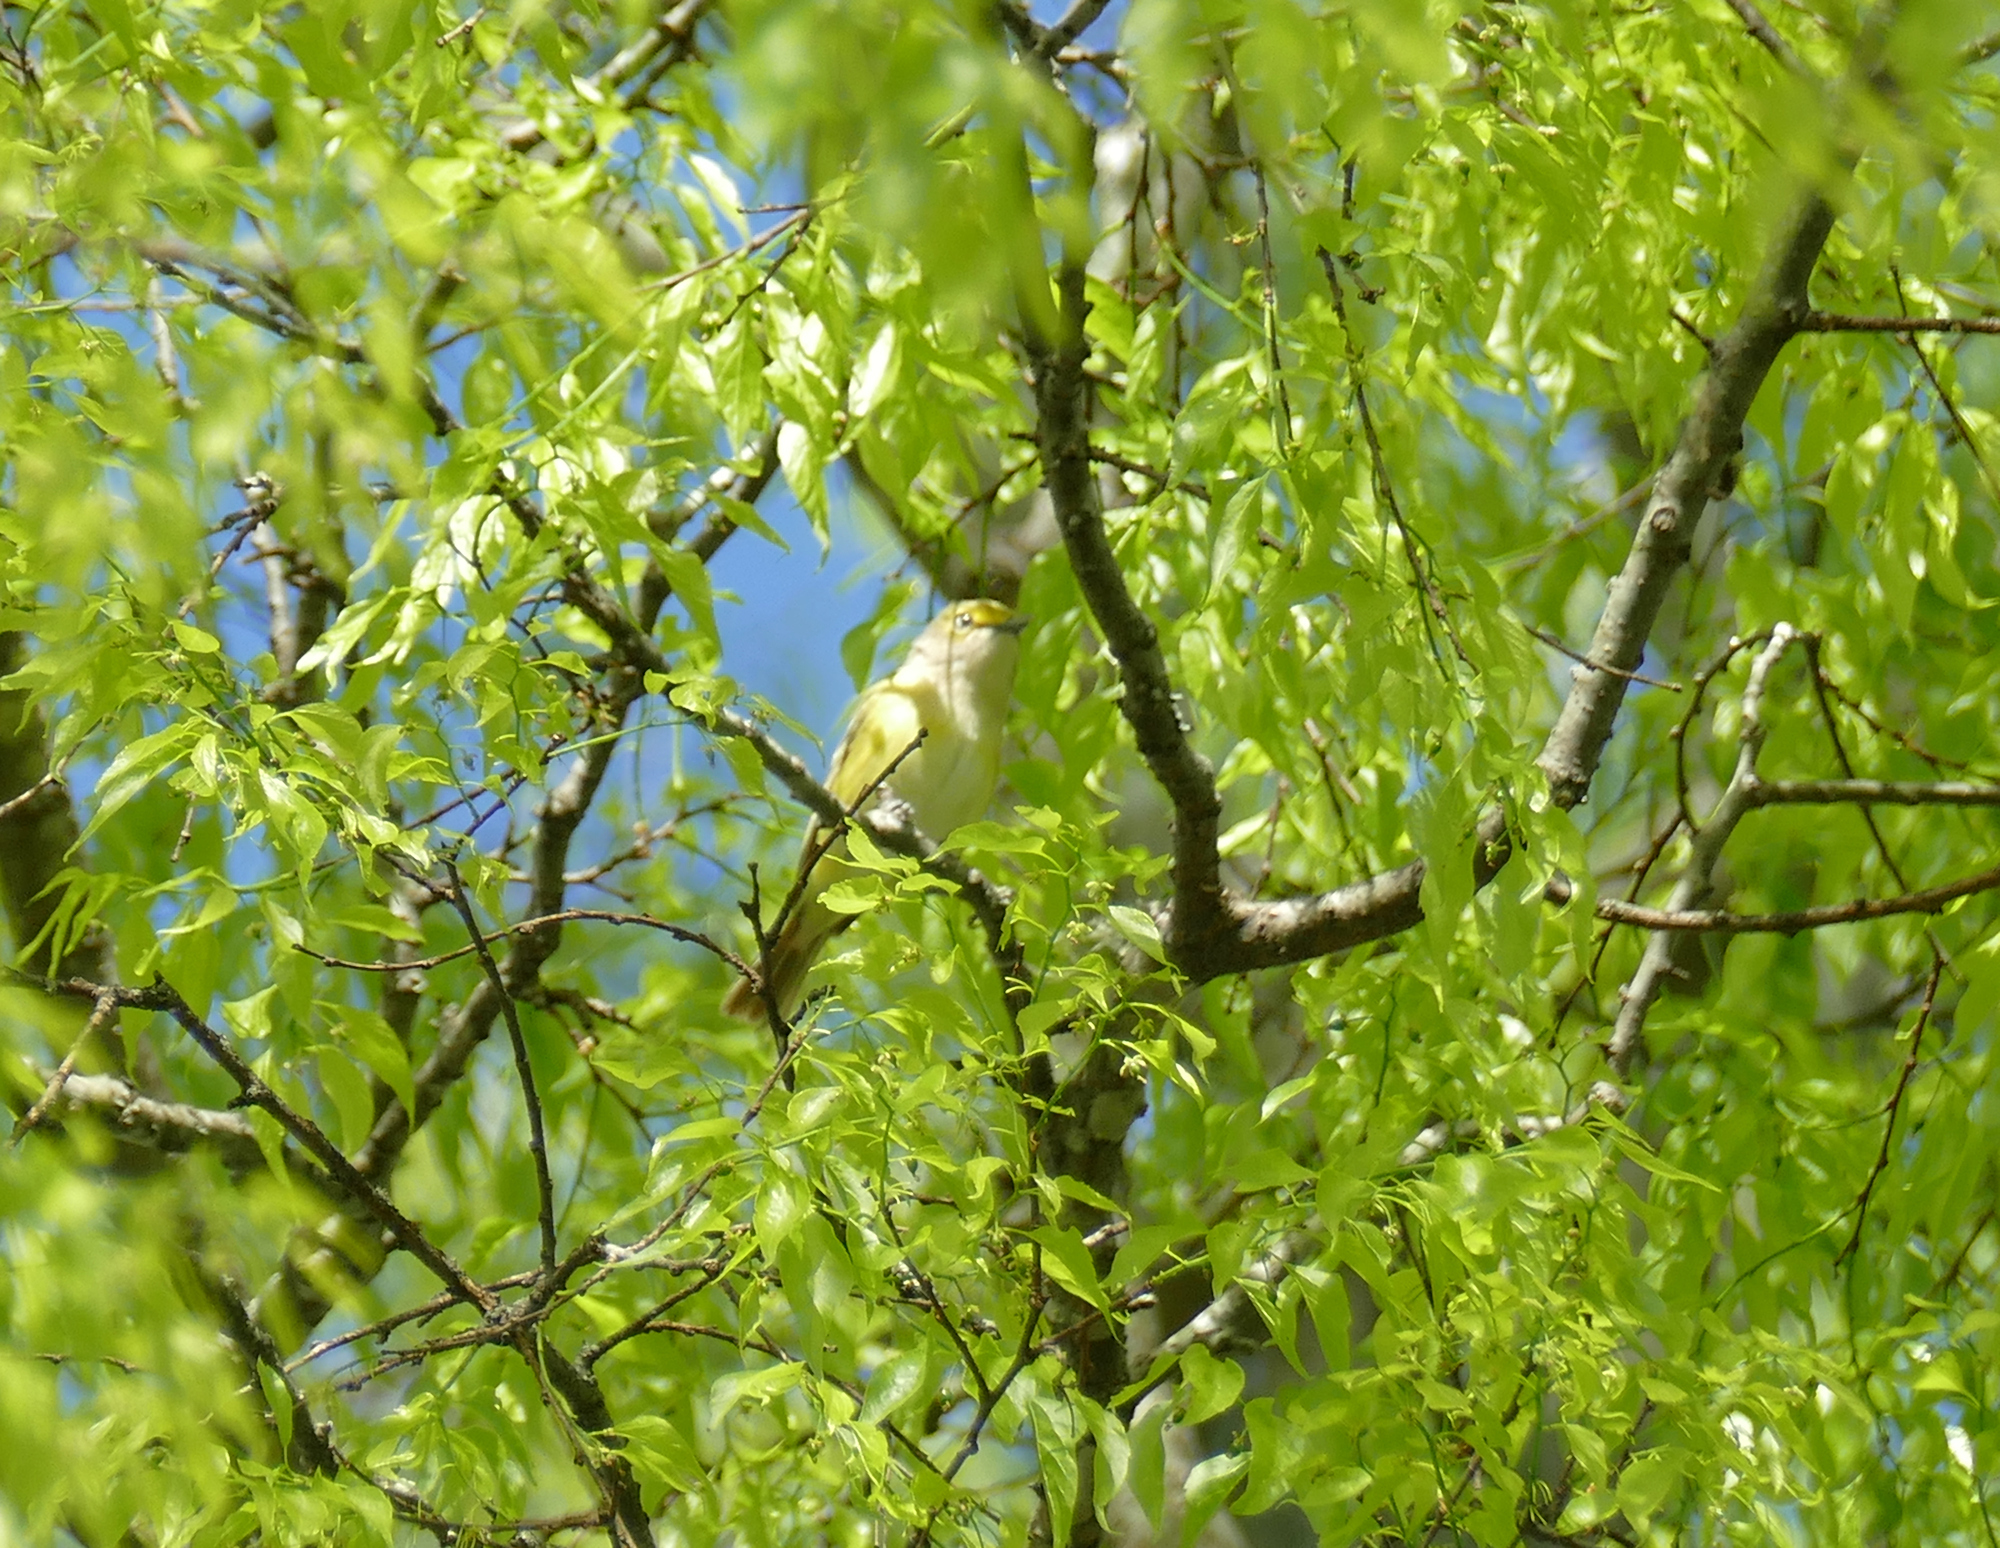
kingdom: Animalia
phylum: Chordata
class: Aves
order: Passeriformes
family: Vireonidae
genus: Vireo
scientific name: Vireo griseus
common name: White-eyed vireo
